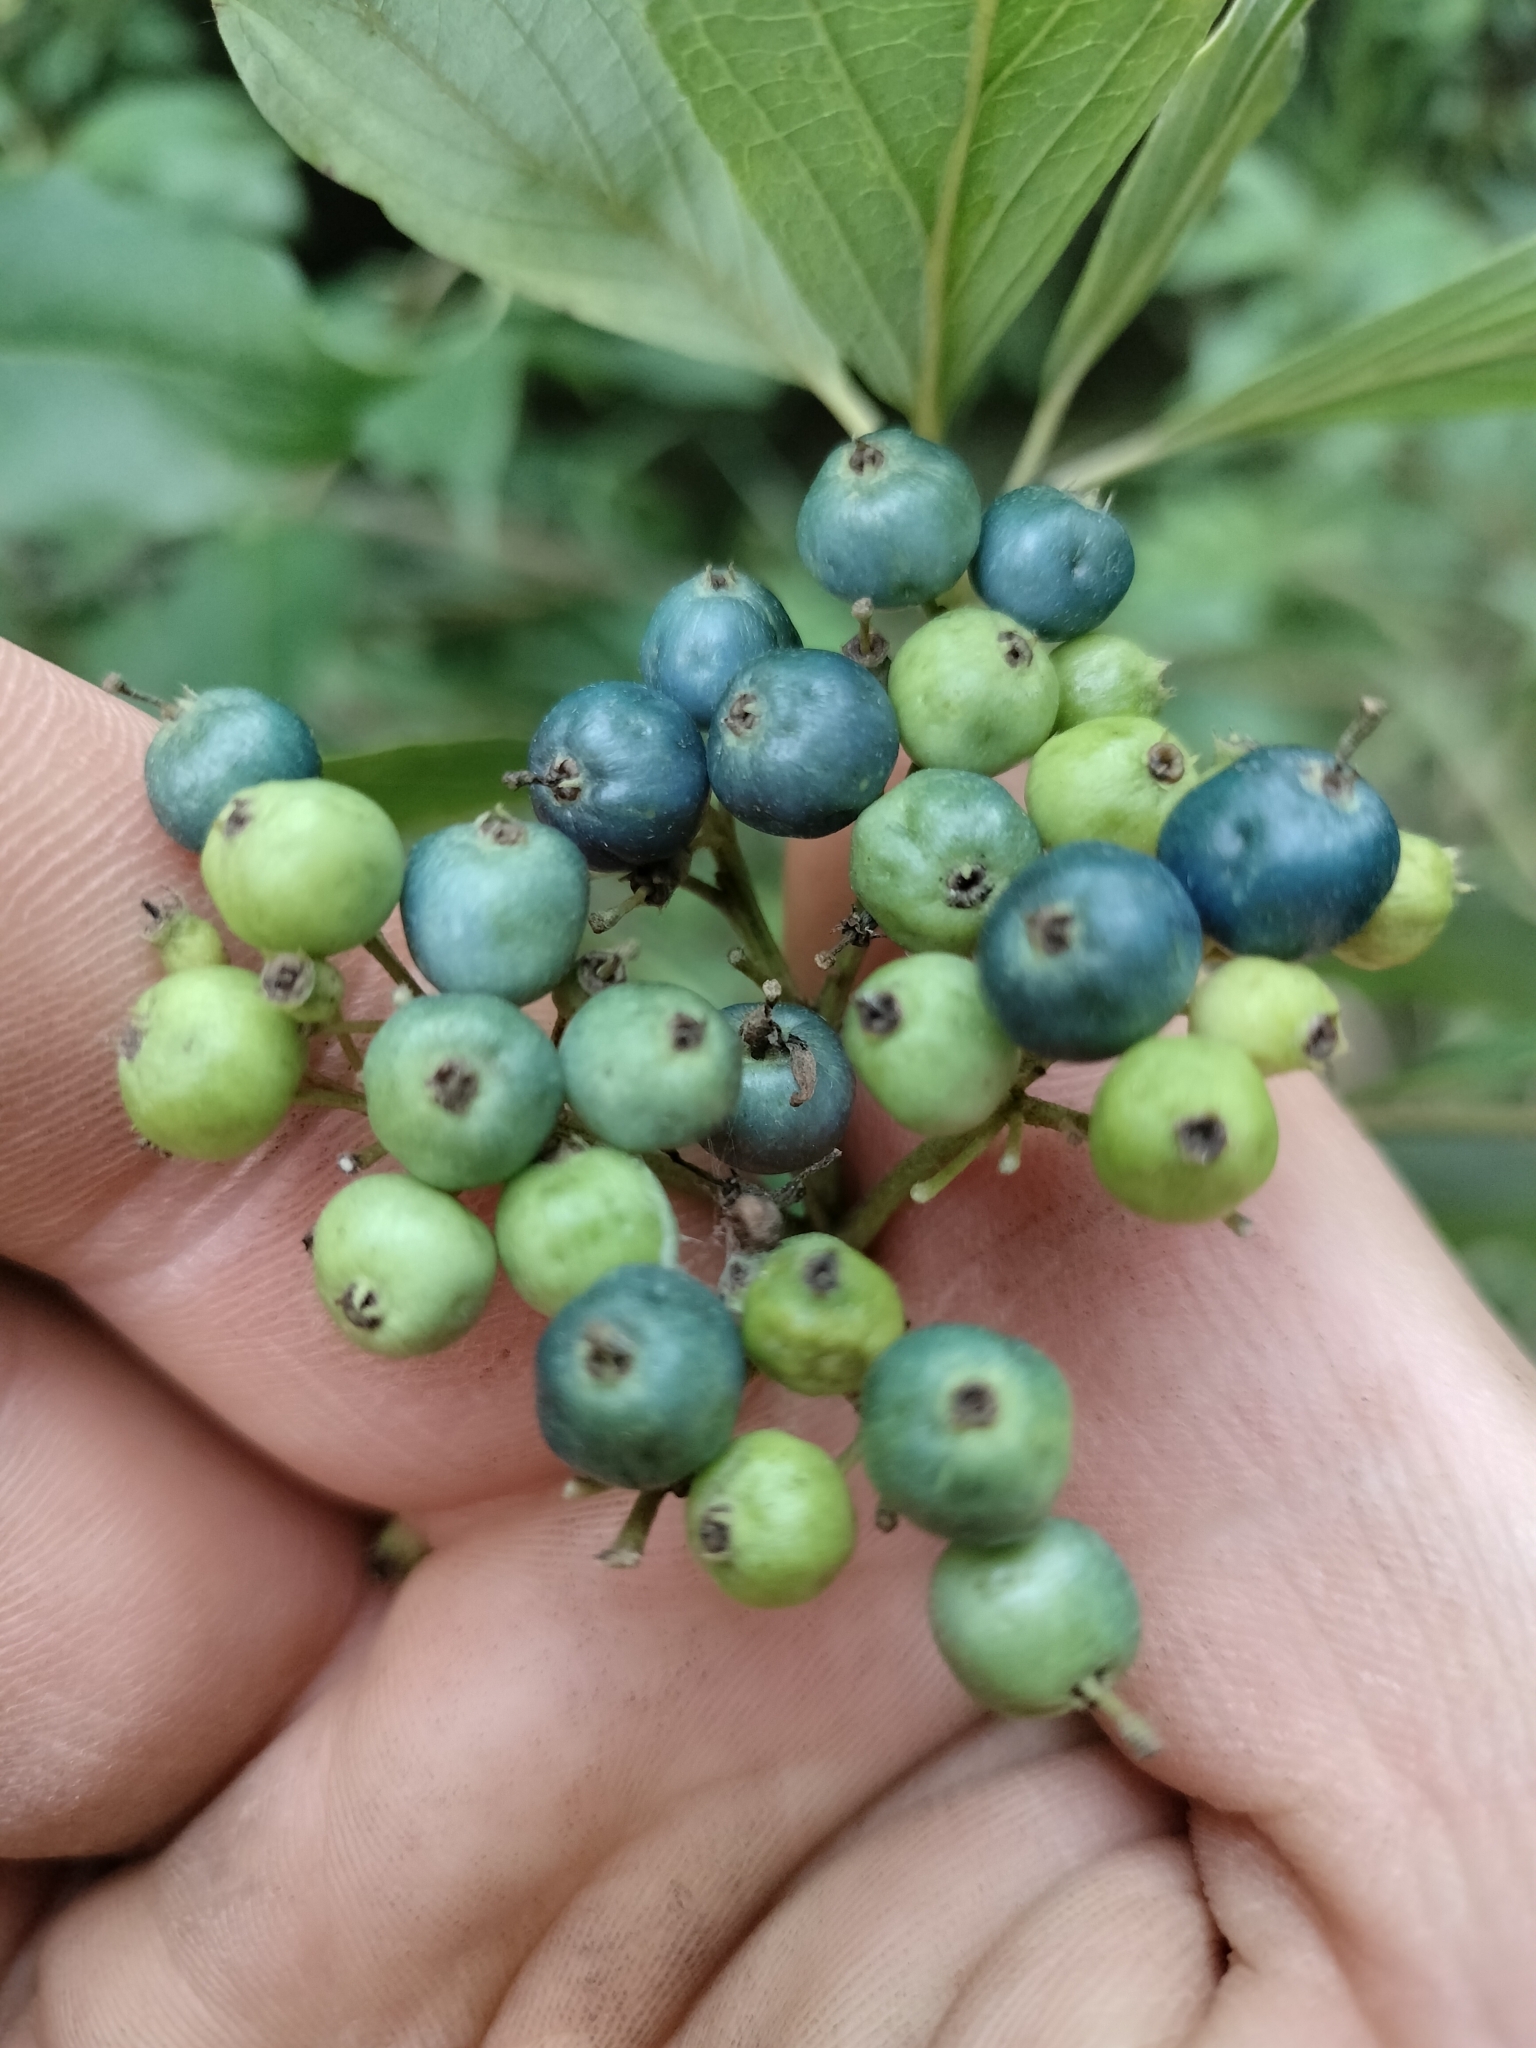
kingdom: Plantae
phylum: Tracheophyta
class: Magnoliopsida
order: Cornales
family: Cornaceae
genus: Cornus
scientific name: Cornus amomum
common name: Silky dogwood
